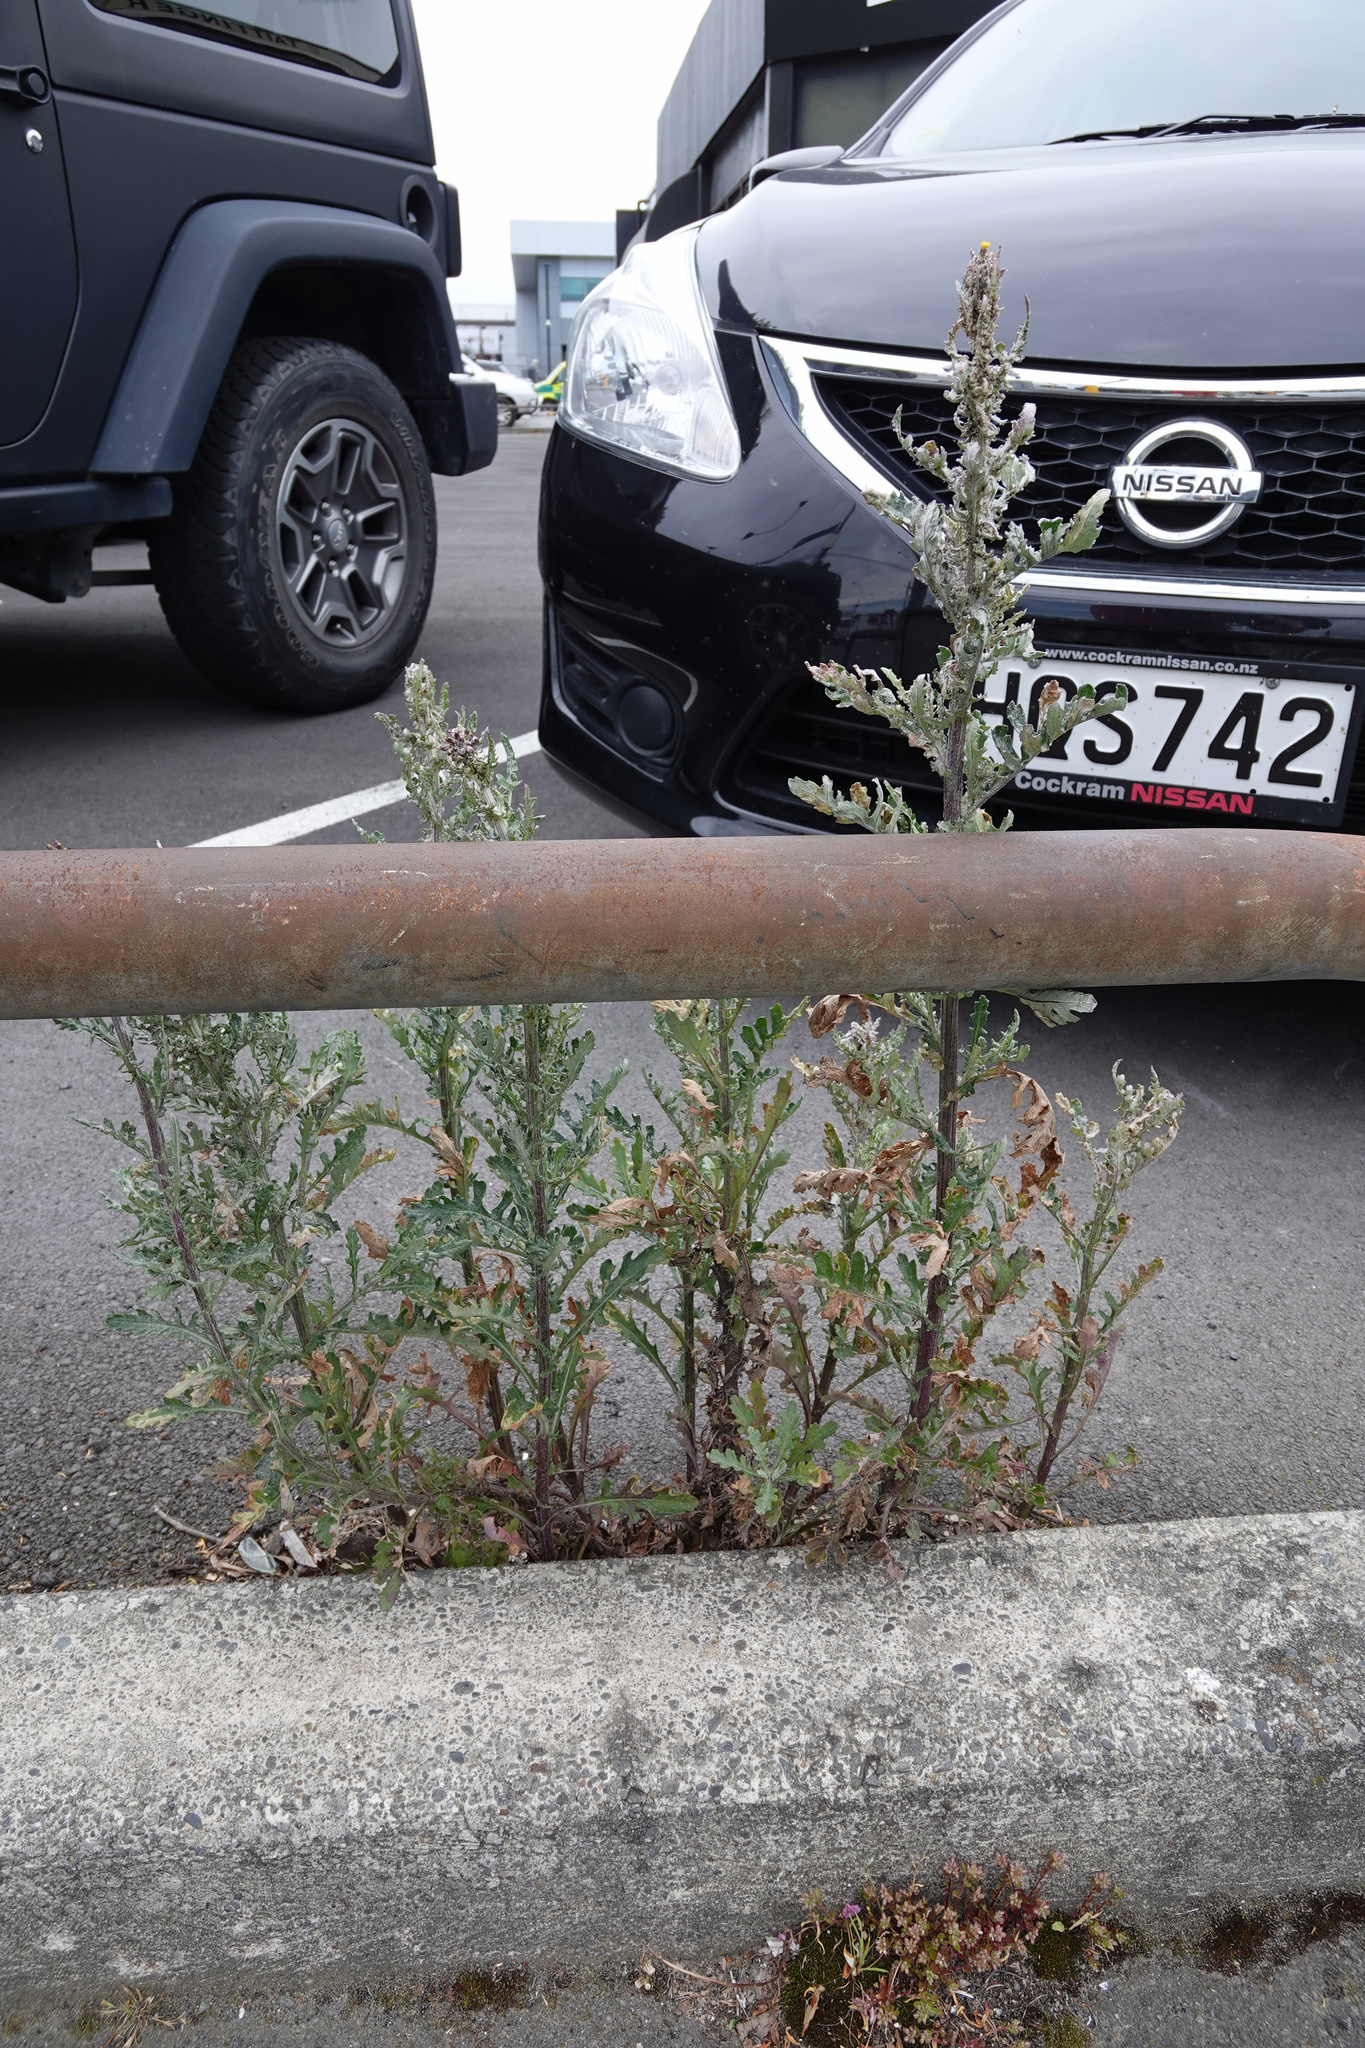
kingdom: Plantae
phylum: Tracheophyta
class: Magnoliopsida
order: Asterales
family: Asteraceae
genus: Senecio
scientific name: Senecio glomeratus
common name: Cutleaf burnweed
